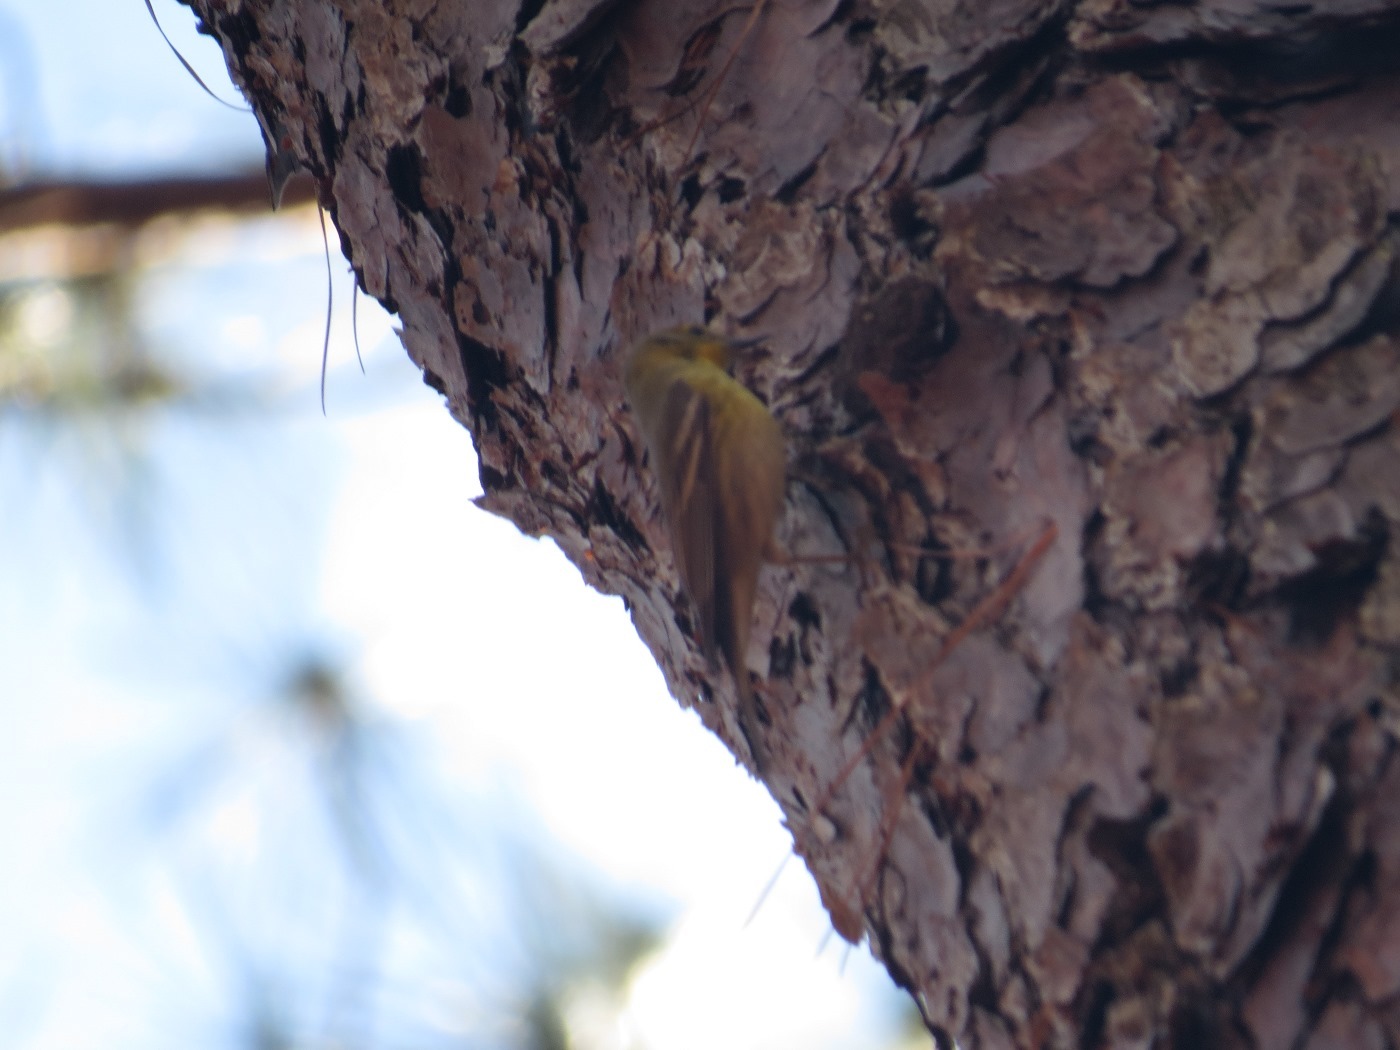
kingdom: Animalia
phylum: Chordata
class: Aves
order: Passeriformes
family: Parulidae
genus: Setophaga
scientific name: Setophaga pinus
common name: Pine warbler
